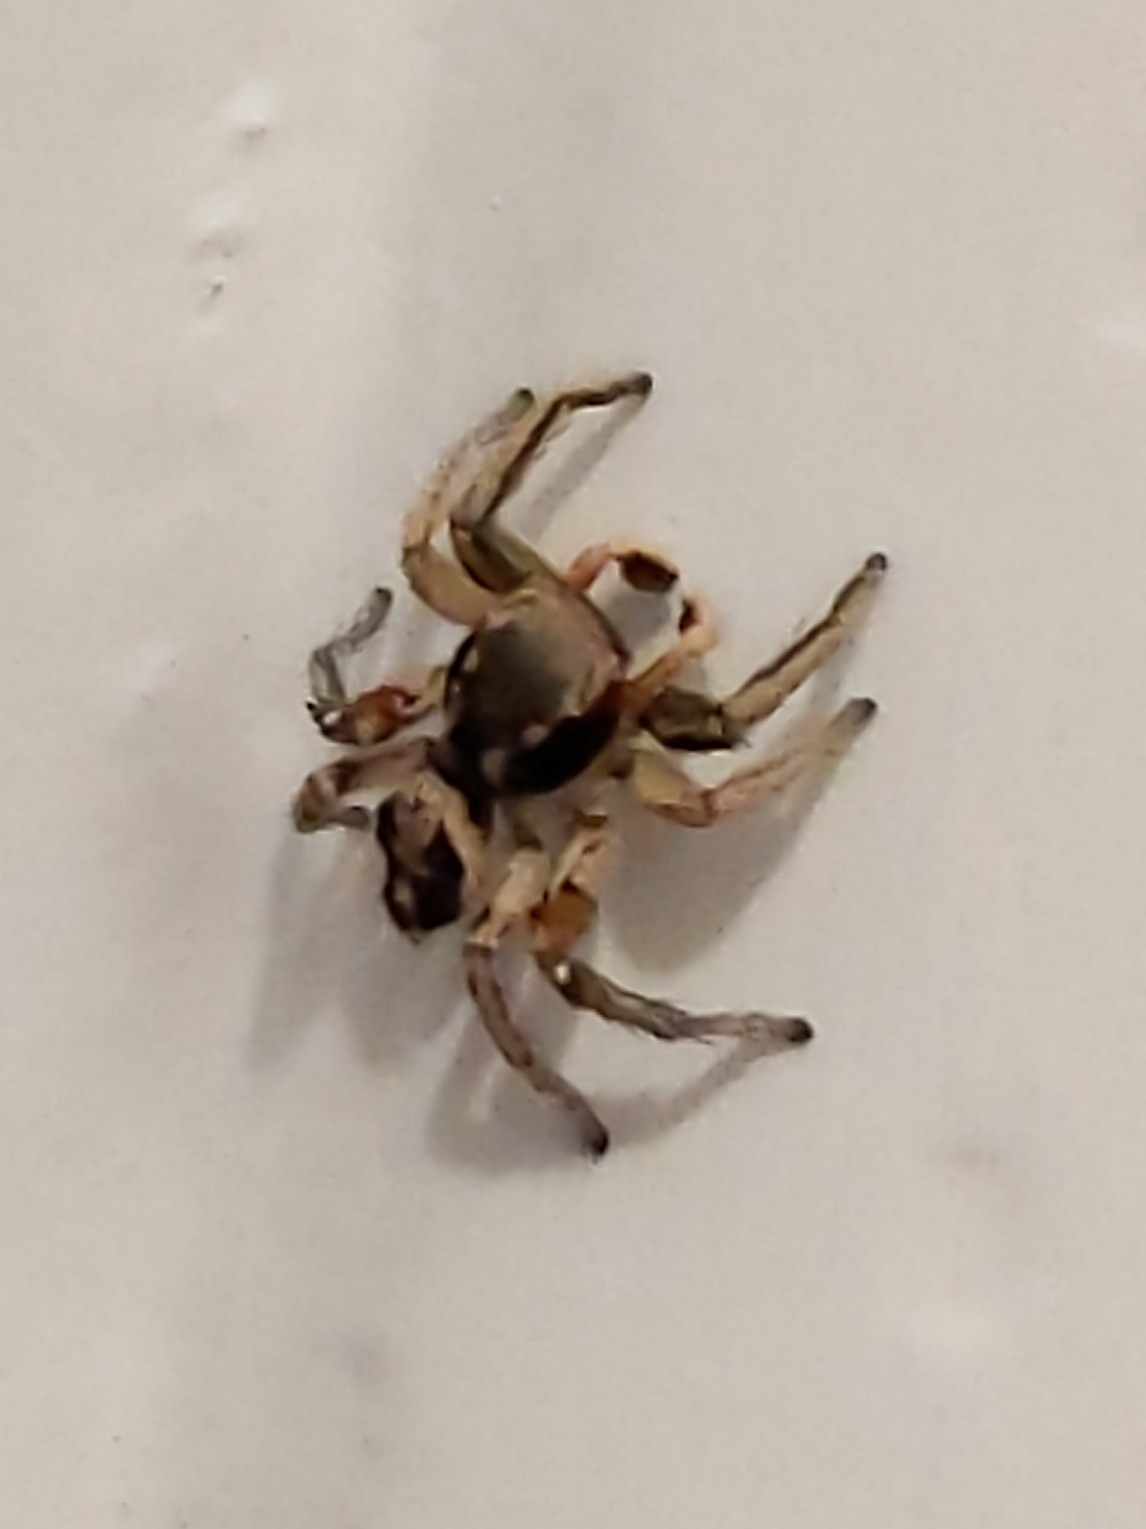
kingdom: Animalia
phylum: Arthropoda
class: Arachnida
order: Araneae
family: Salticidae
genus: Habronattus
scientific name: Habronattus pyrrithrix
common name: Jumping spider
